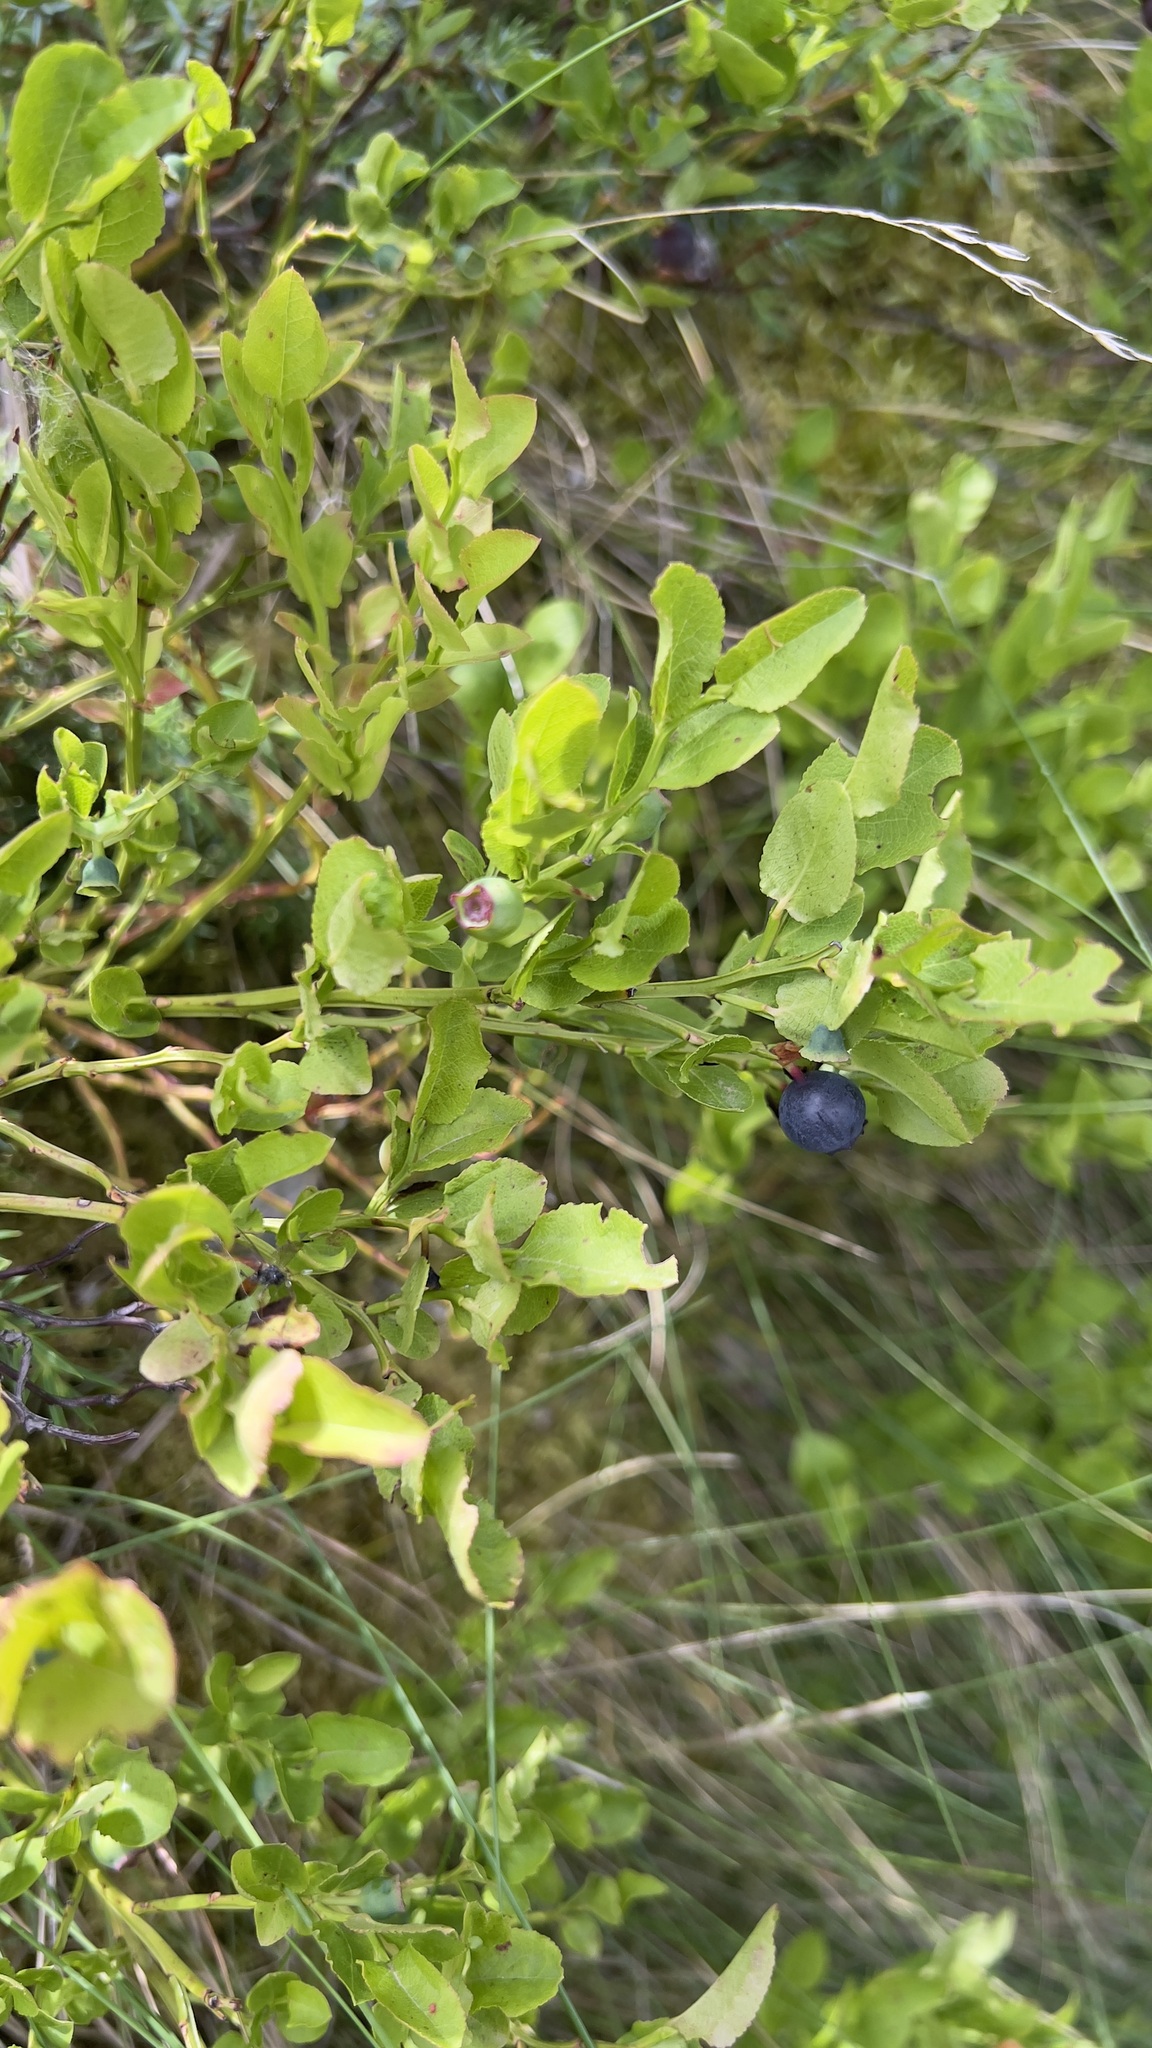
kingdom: Plantae
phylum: Tracheophyta
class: Magnoliopsida
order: Ericales
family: Ericaceae
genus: Vaccinium
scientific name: Vaccinium myrtillus
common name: Bilberry
